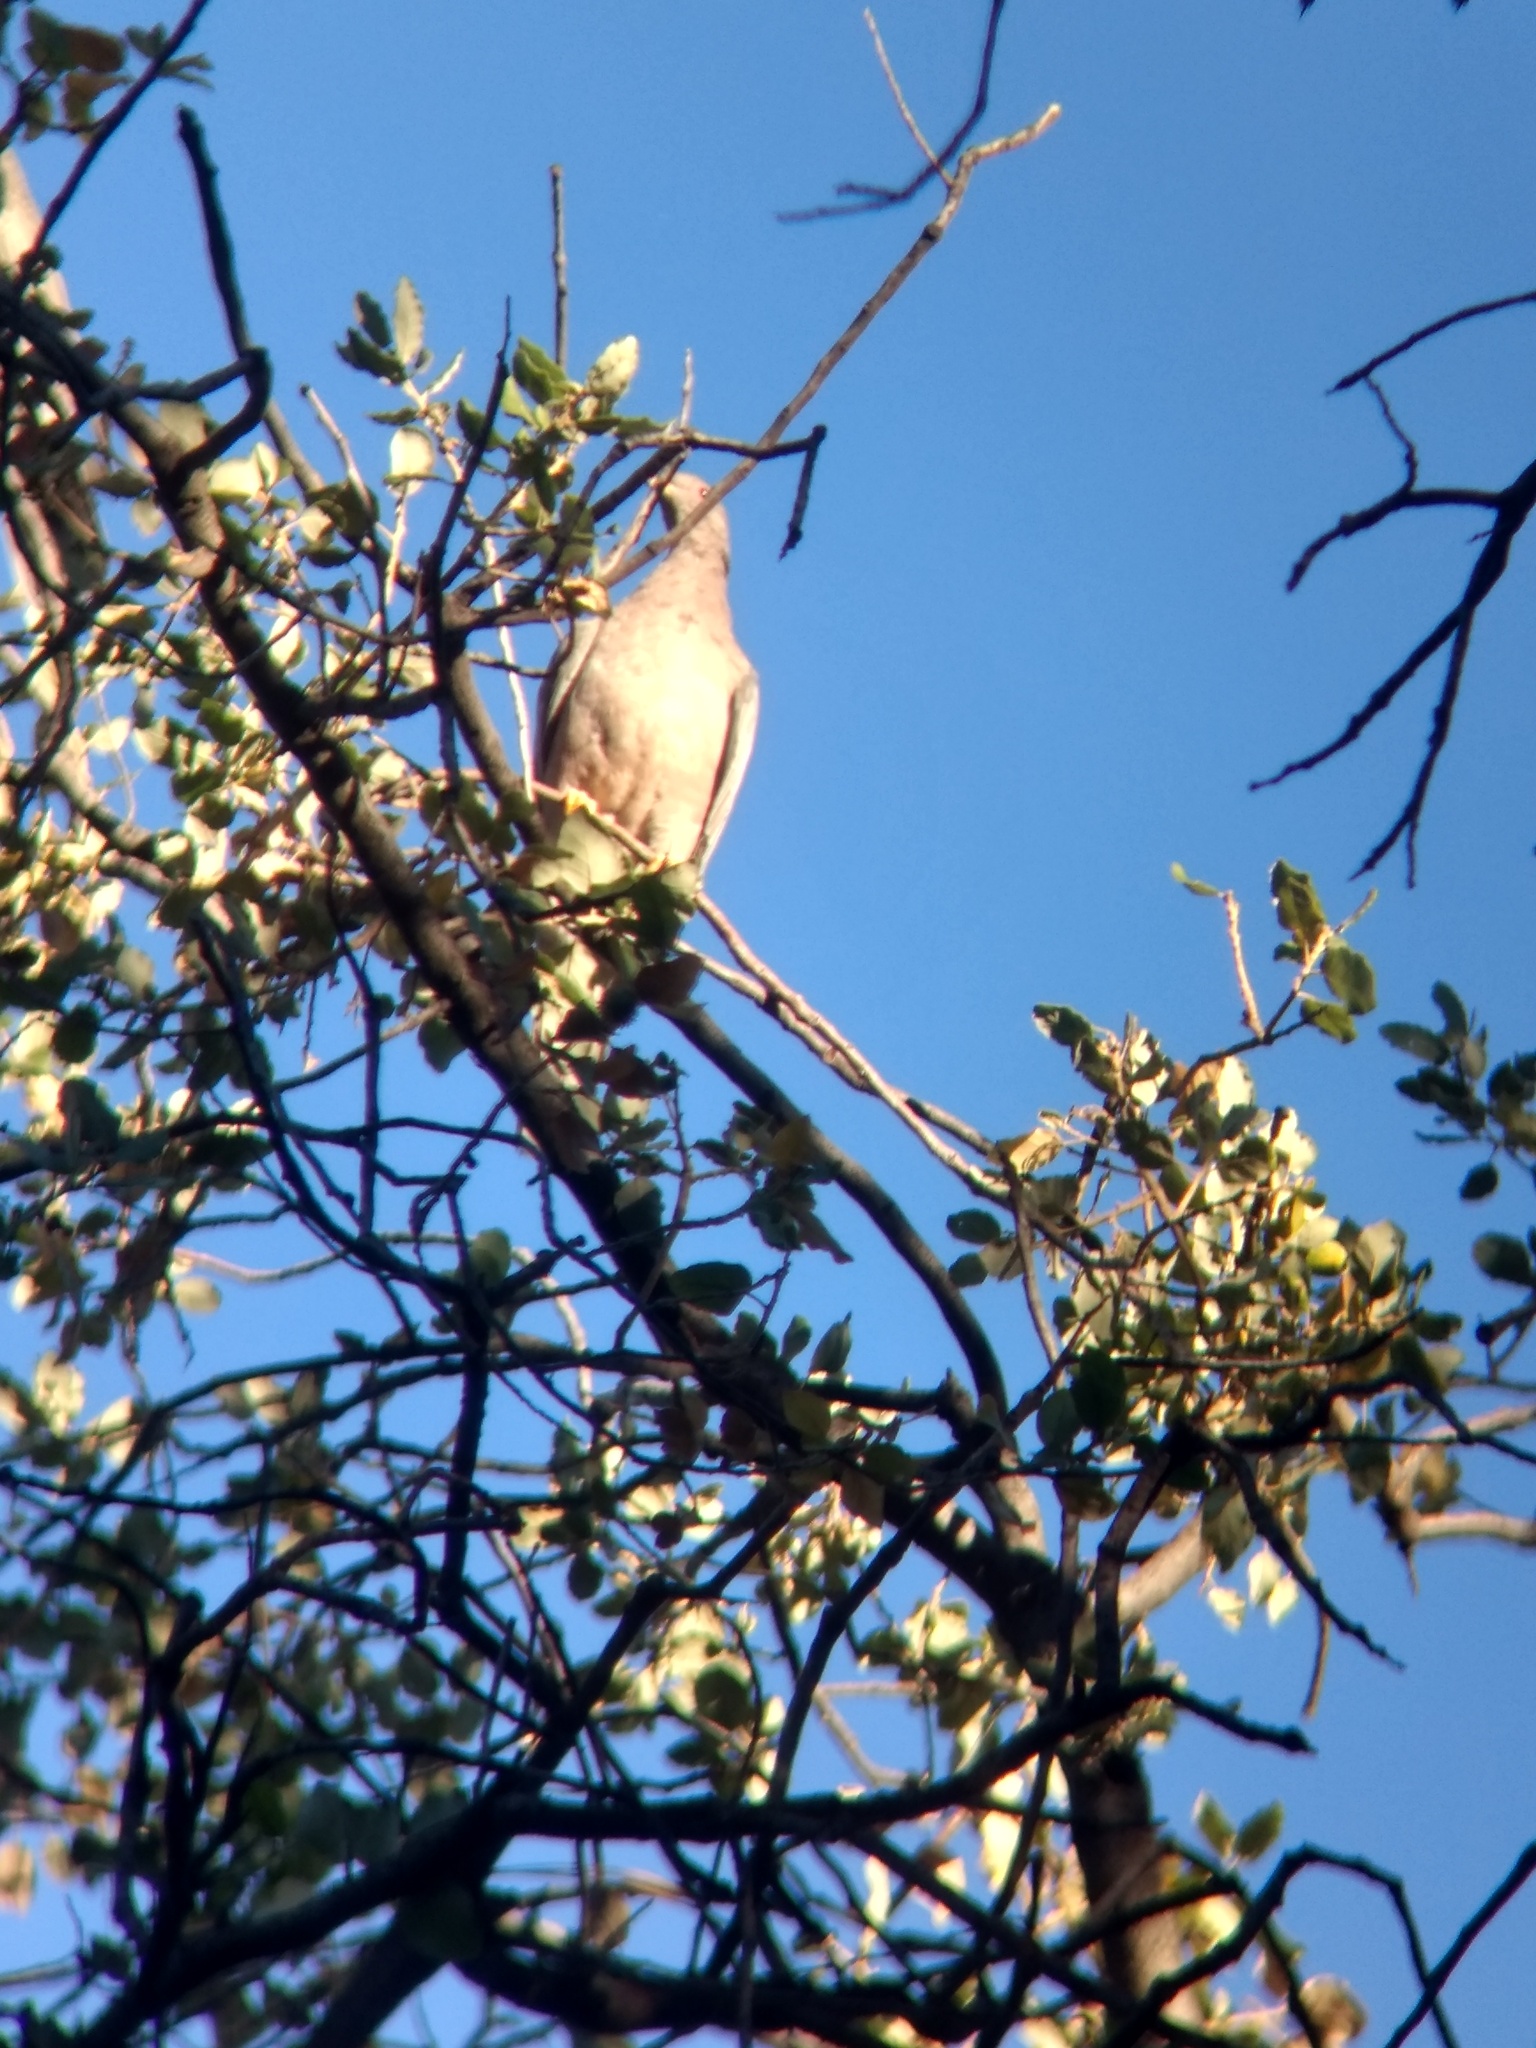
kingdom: Animalia
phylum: Chordata
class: Aves
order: Columbiformes
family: Columbidae
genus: Patagioenas
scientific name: Patagioenas fasciata
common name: Band-tailed pigeon
